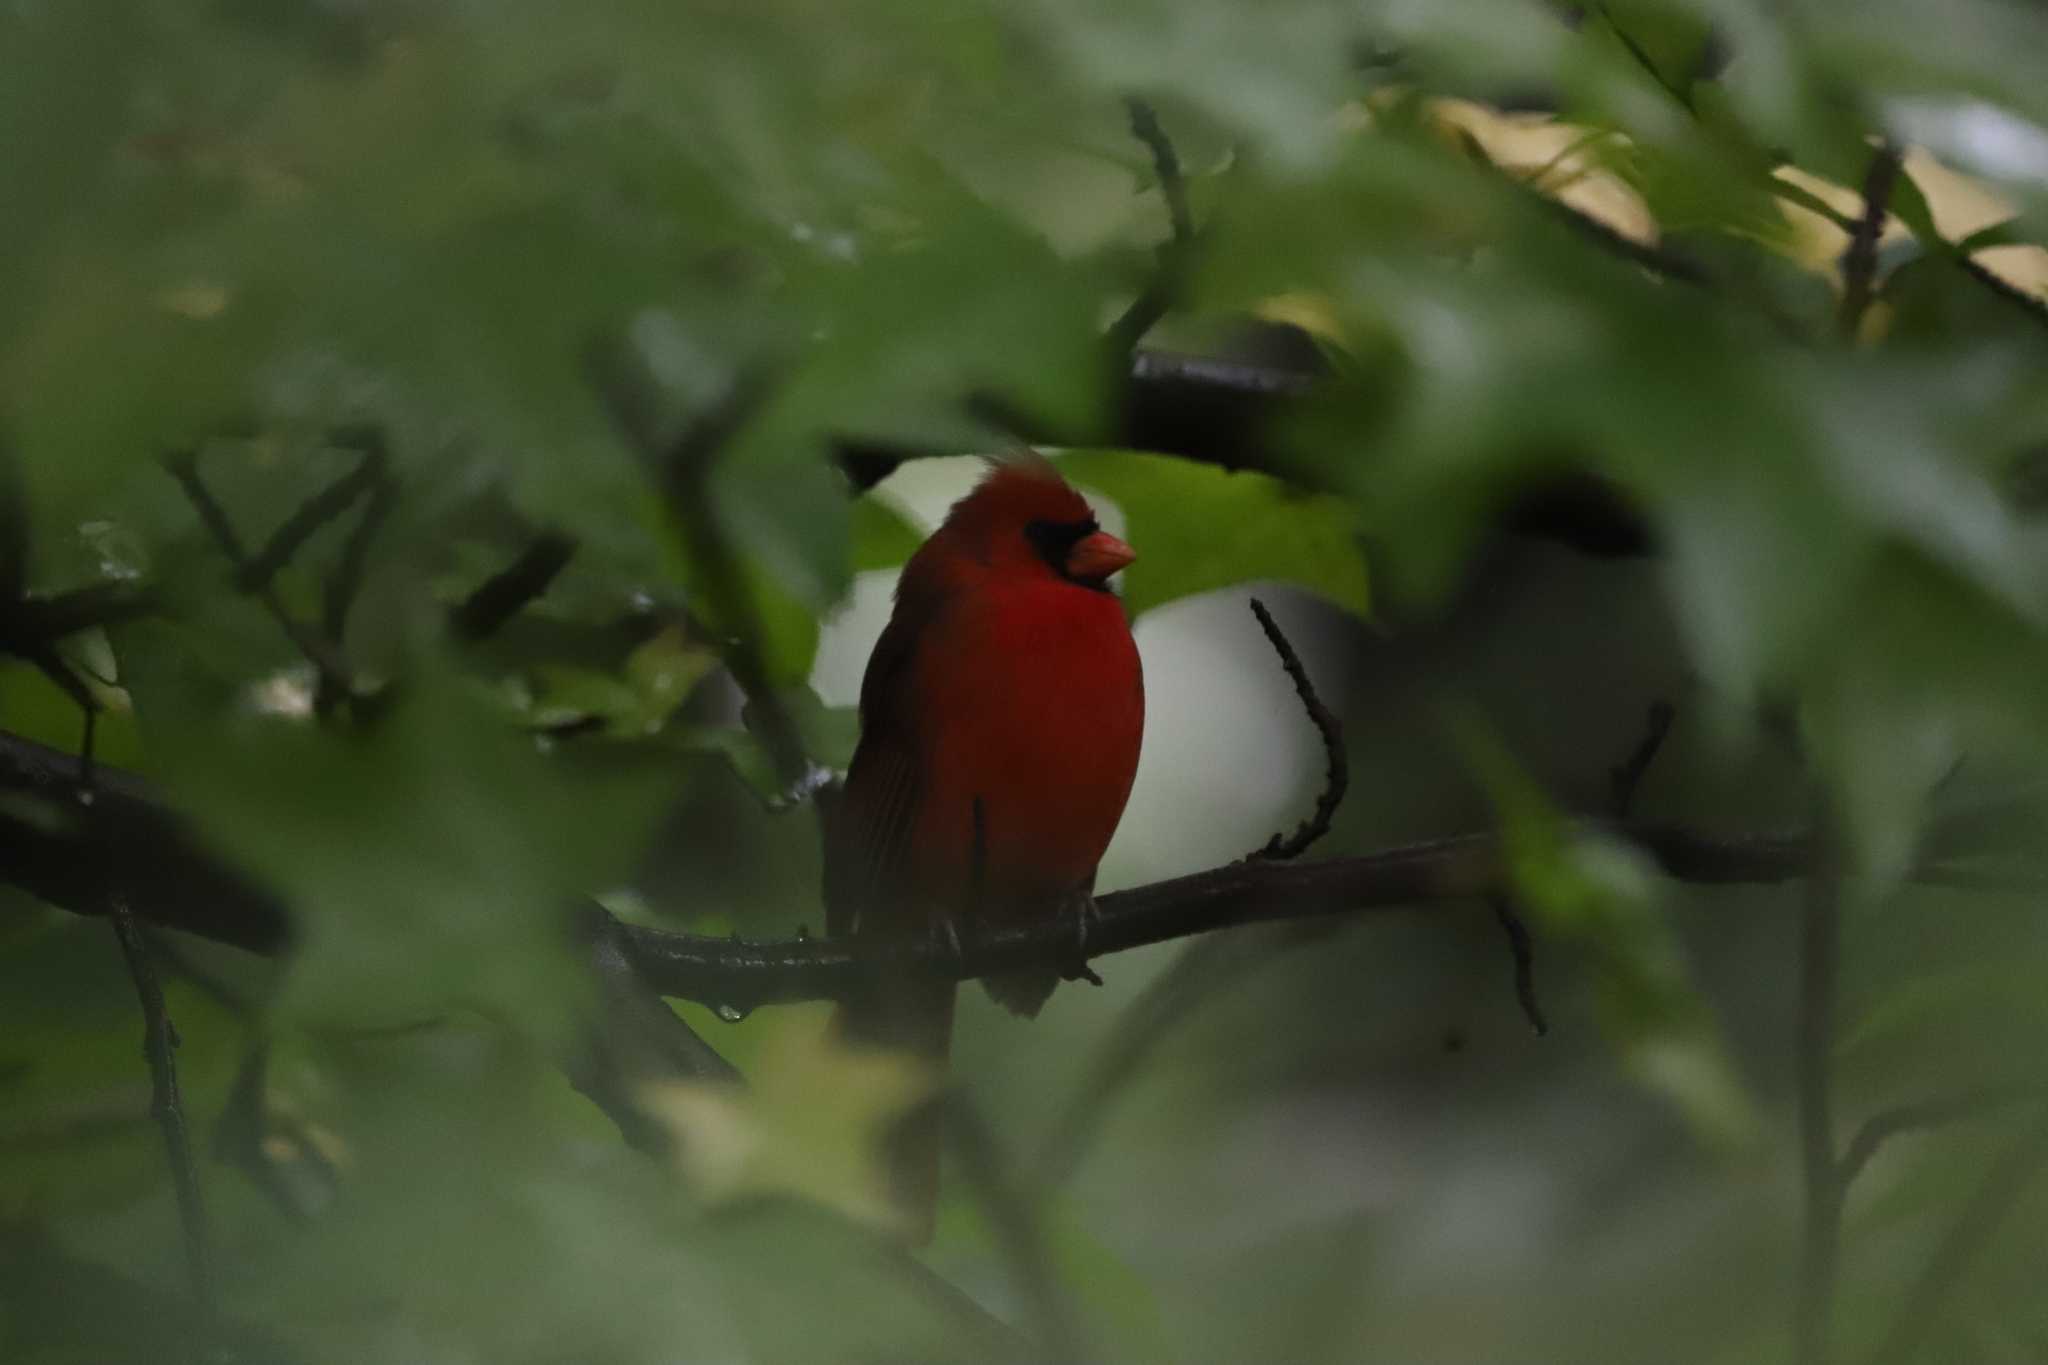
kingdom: Animalia
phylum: Chordata
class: Aves
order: Passeriformes
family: Cardinalidae
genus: Cardinalis
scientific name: Cardinalis cardinalis
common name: Northern cardinal
